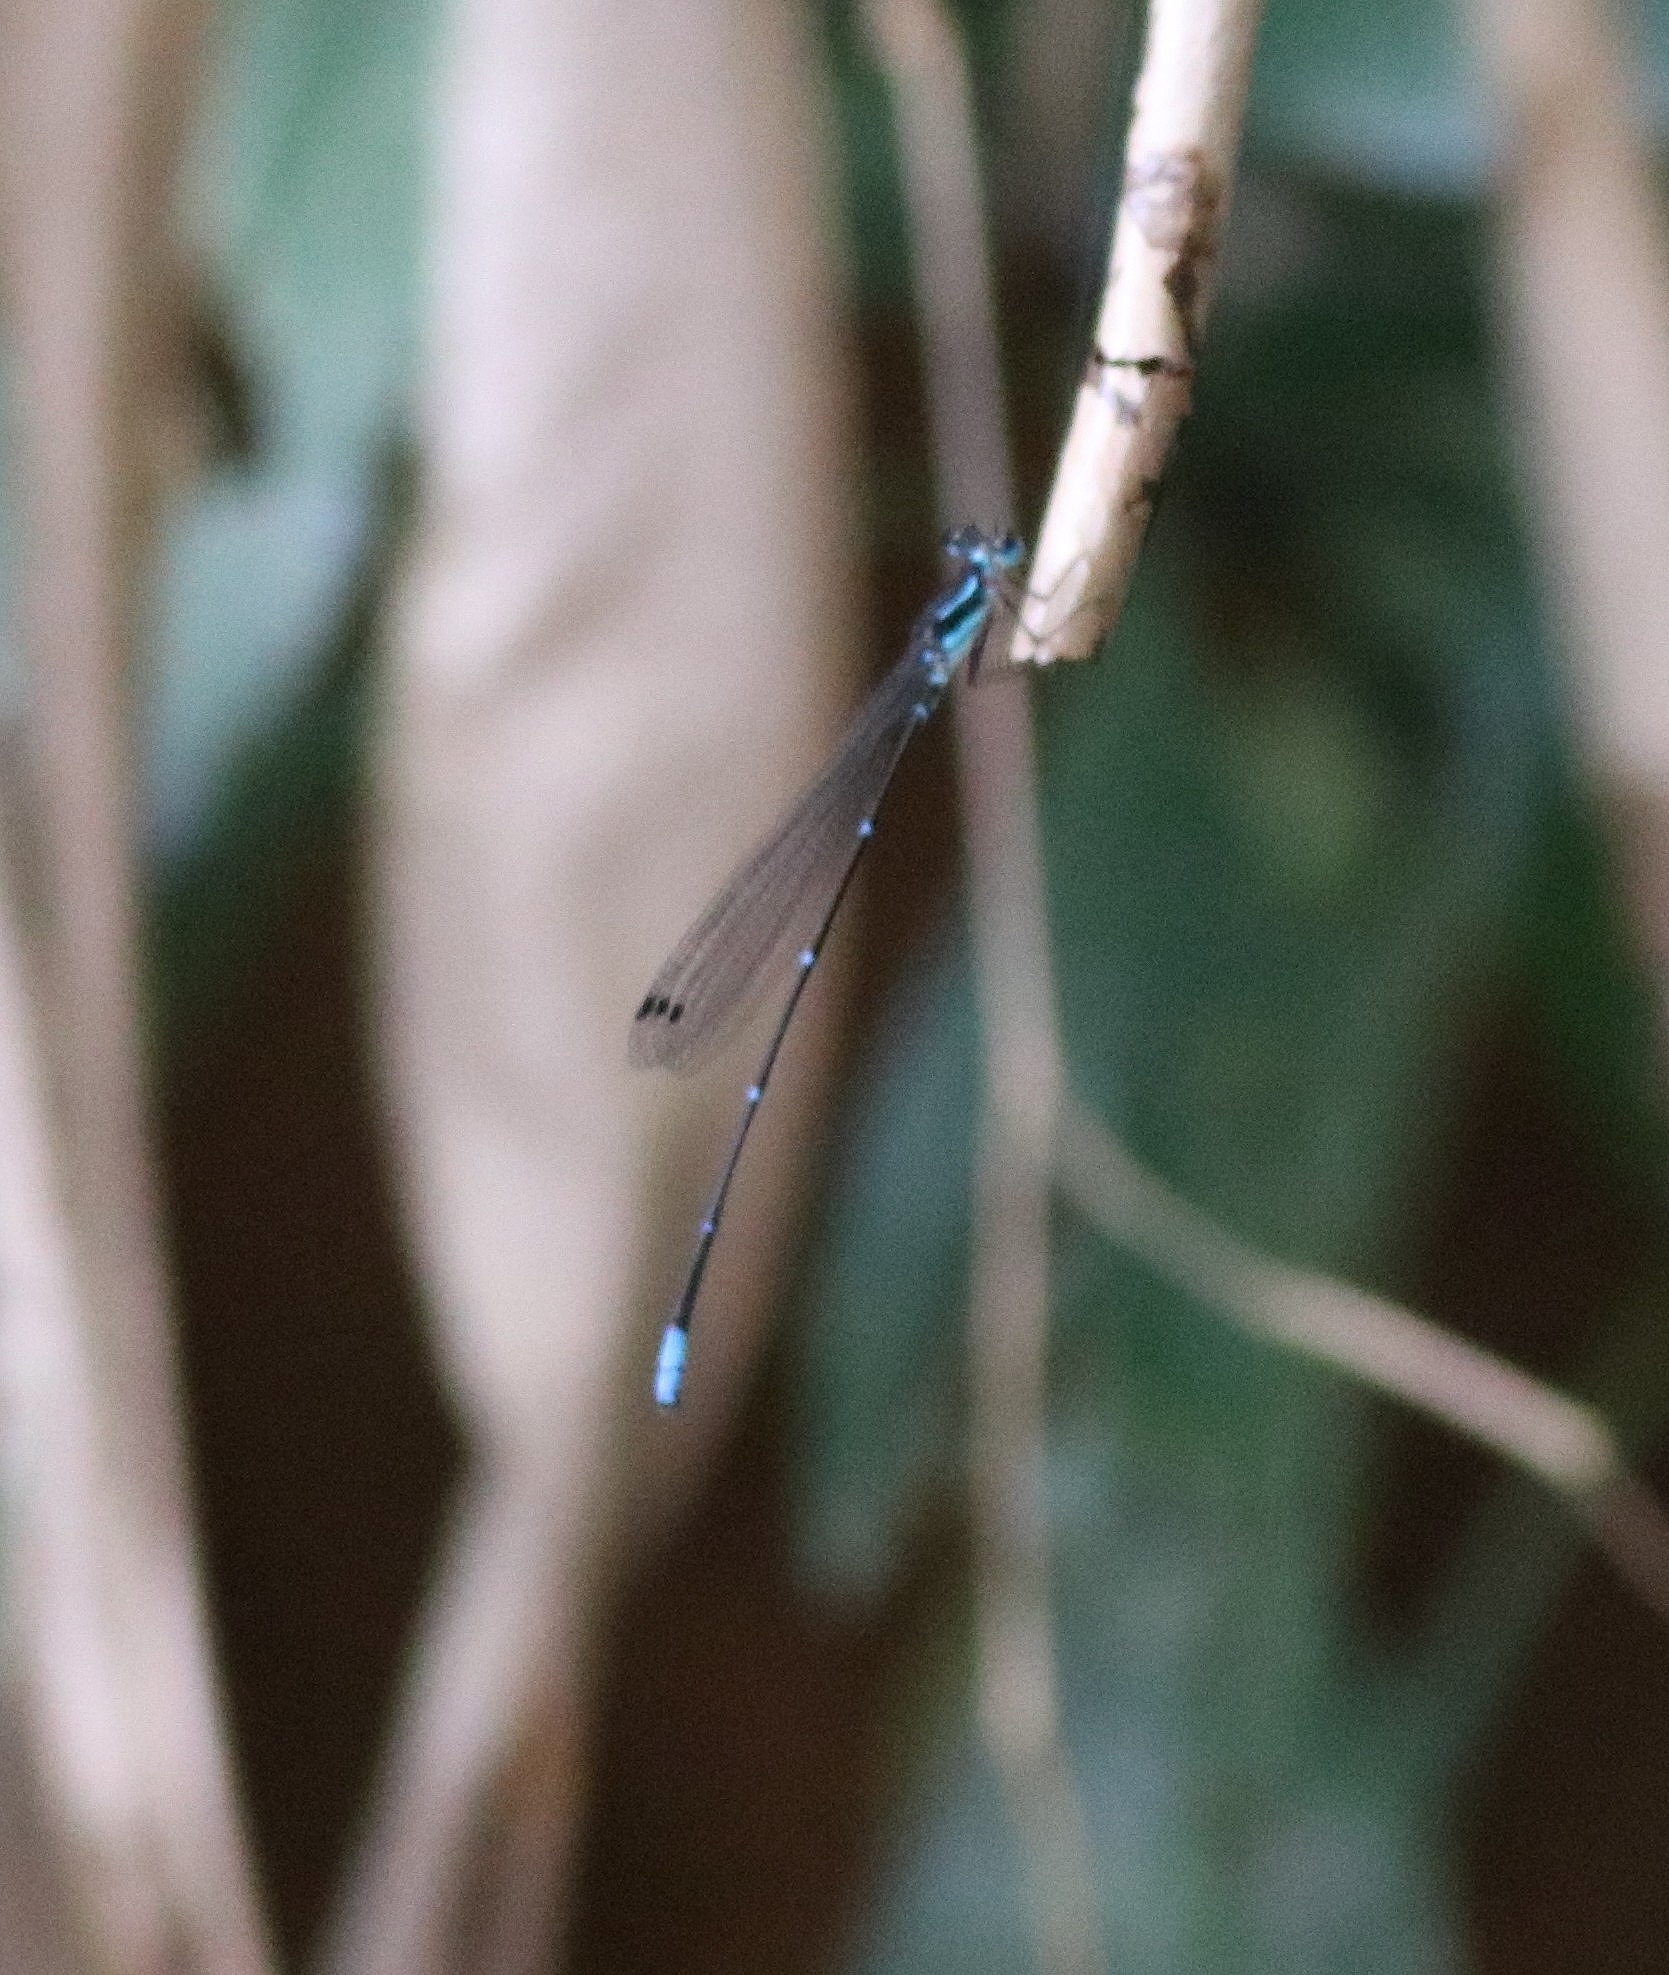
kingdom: Animalia
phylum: Arthropoda
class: Insecta
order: Odonata
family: Platycnemididae
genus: Caconeura
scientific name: Caconeura ramburi
